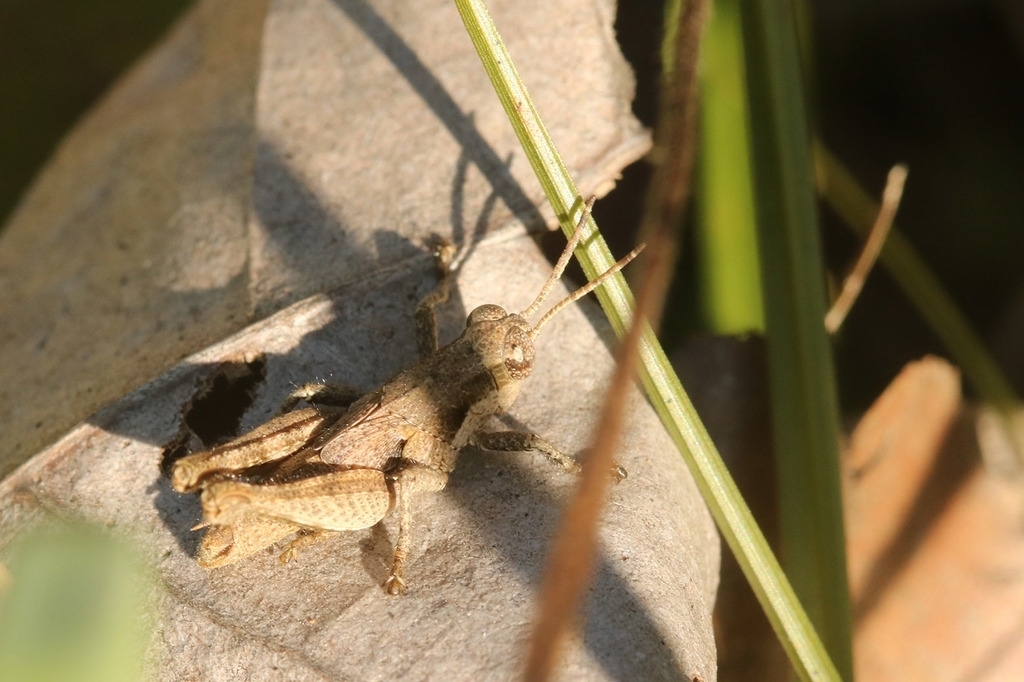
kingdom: Animalia
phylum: Arthropoda
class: Insecta
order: Orthoptera
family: Acrididae
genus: Ronderosia
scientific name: Ronderosia bergii
